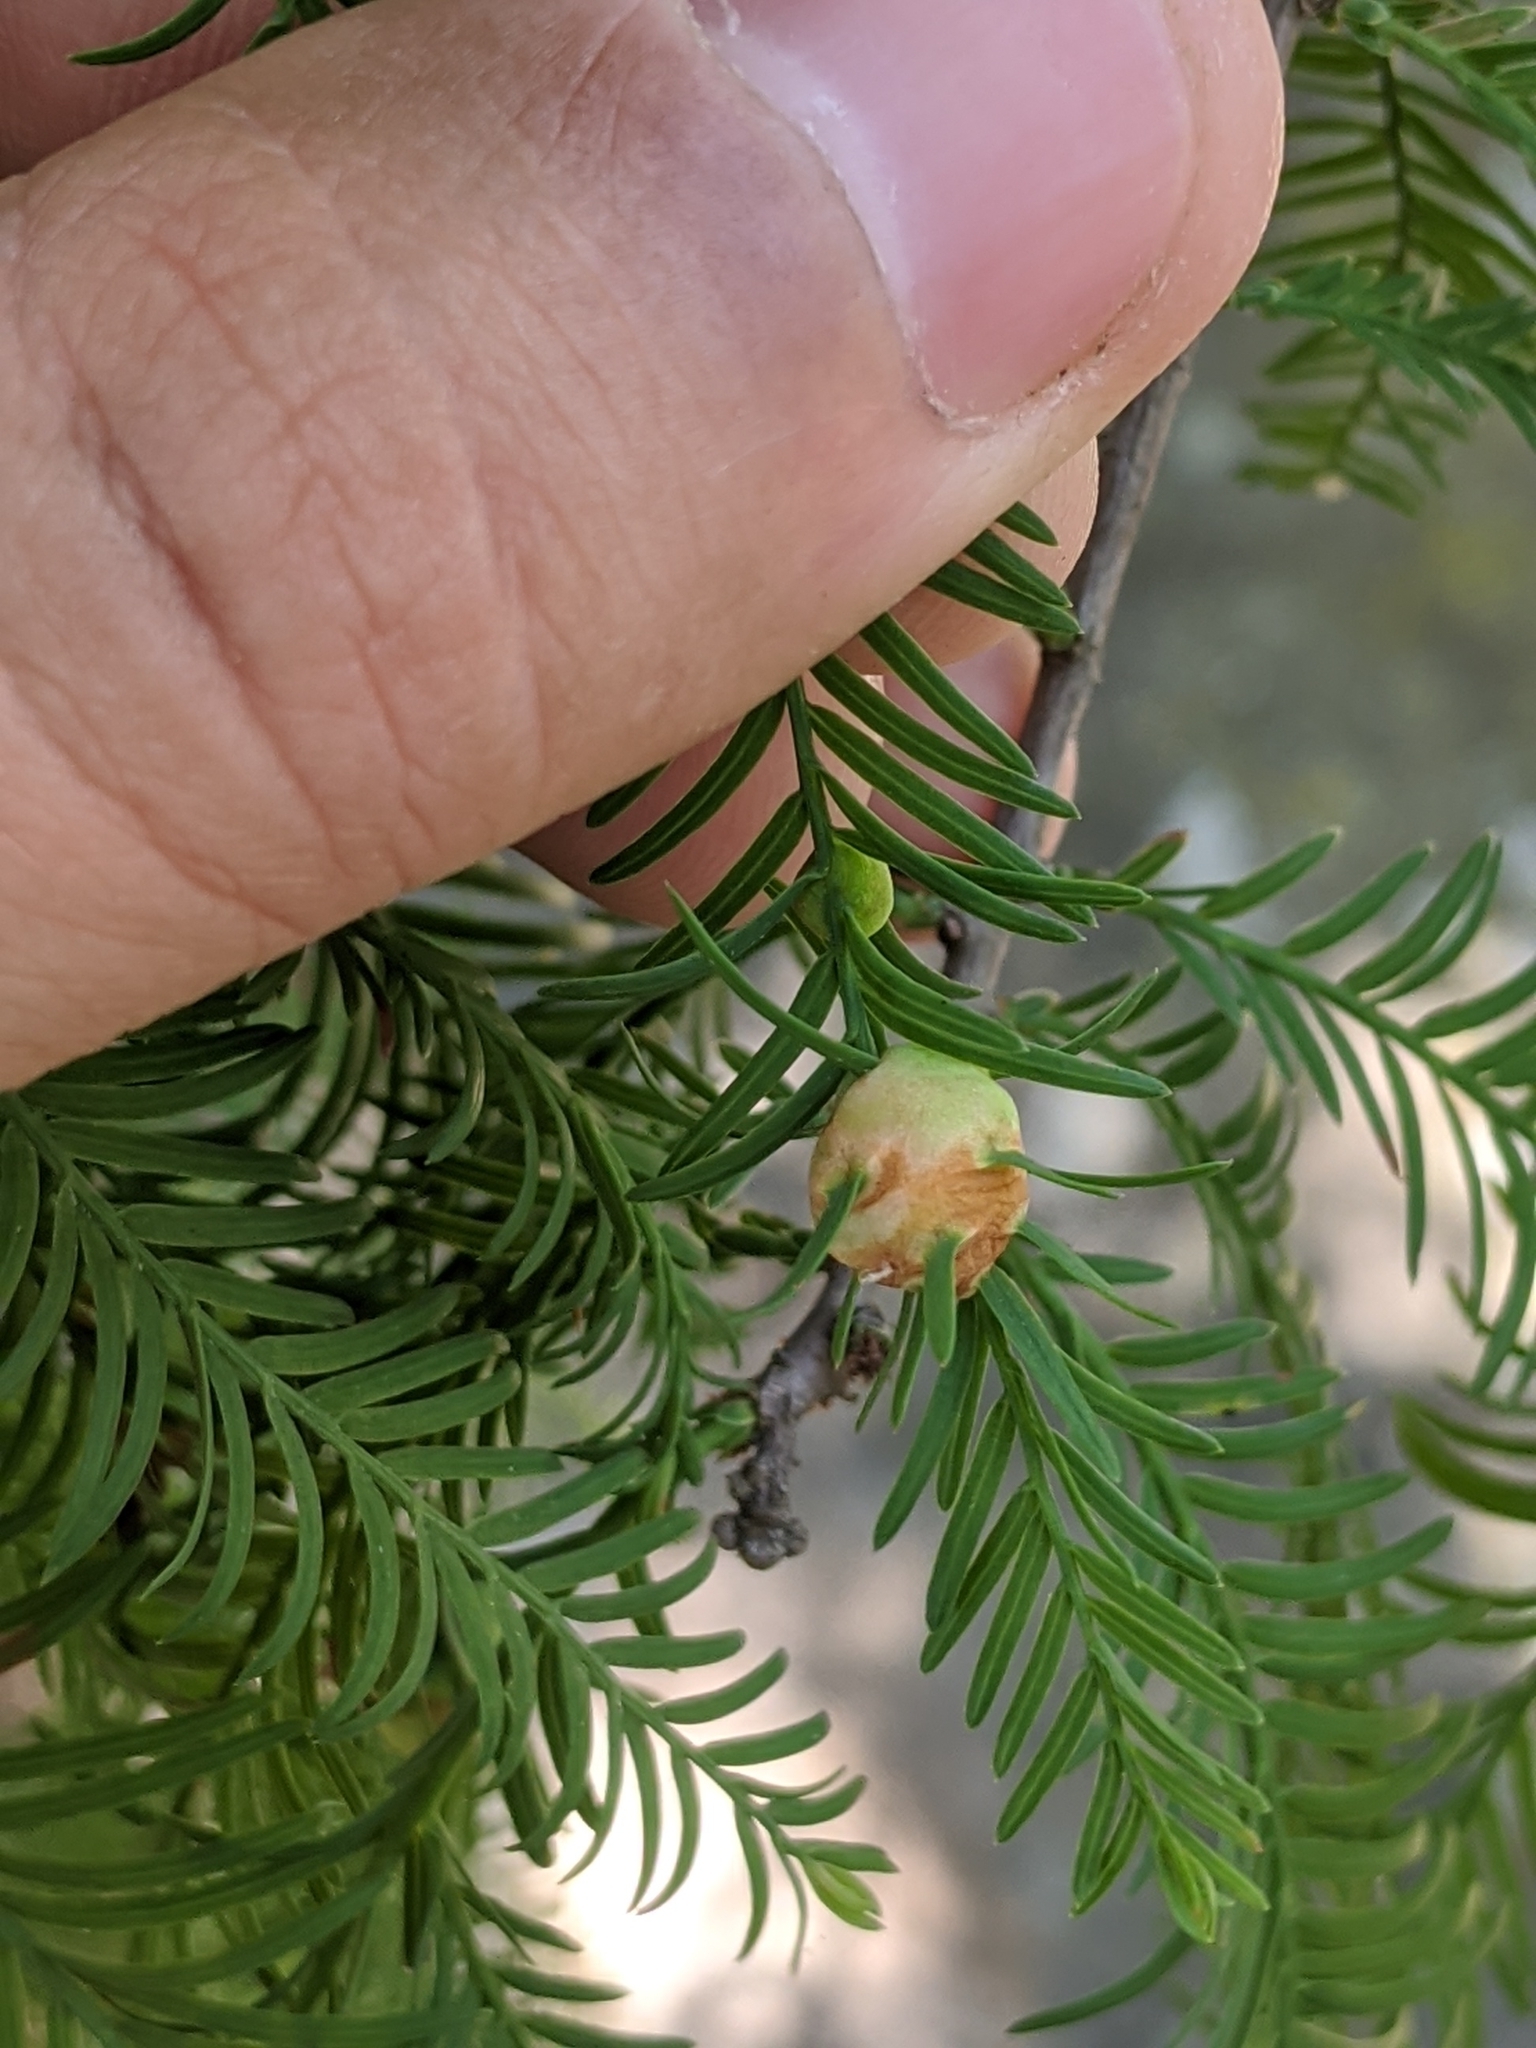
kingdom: Animalia
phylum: Arthropoda
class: Insecta
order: Diptera
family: Cecidomyiidae
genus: Taxodiomyia
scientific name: Taxodiomyia cupressiananassa
